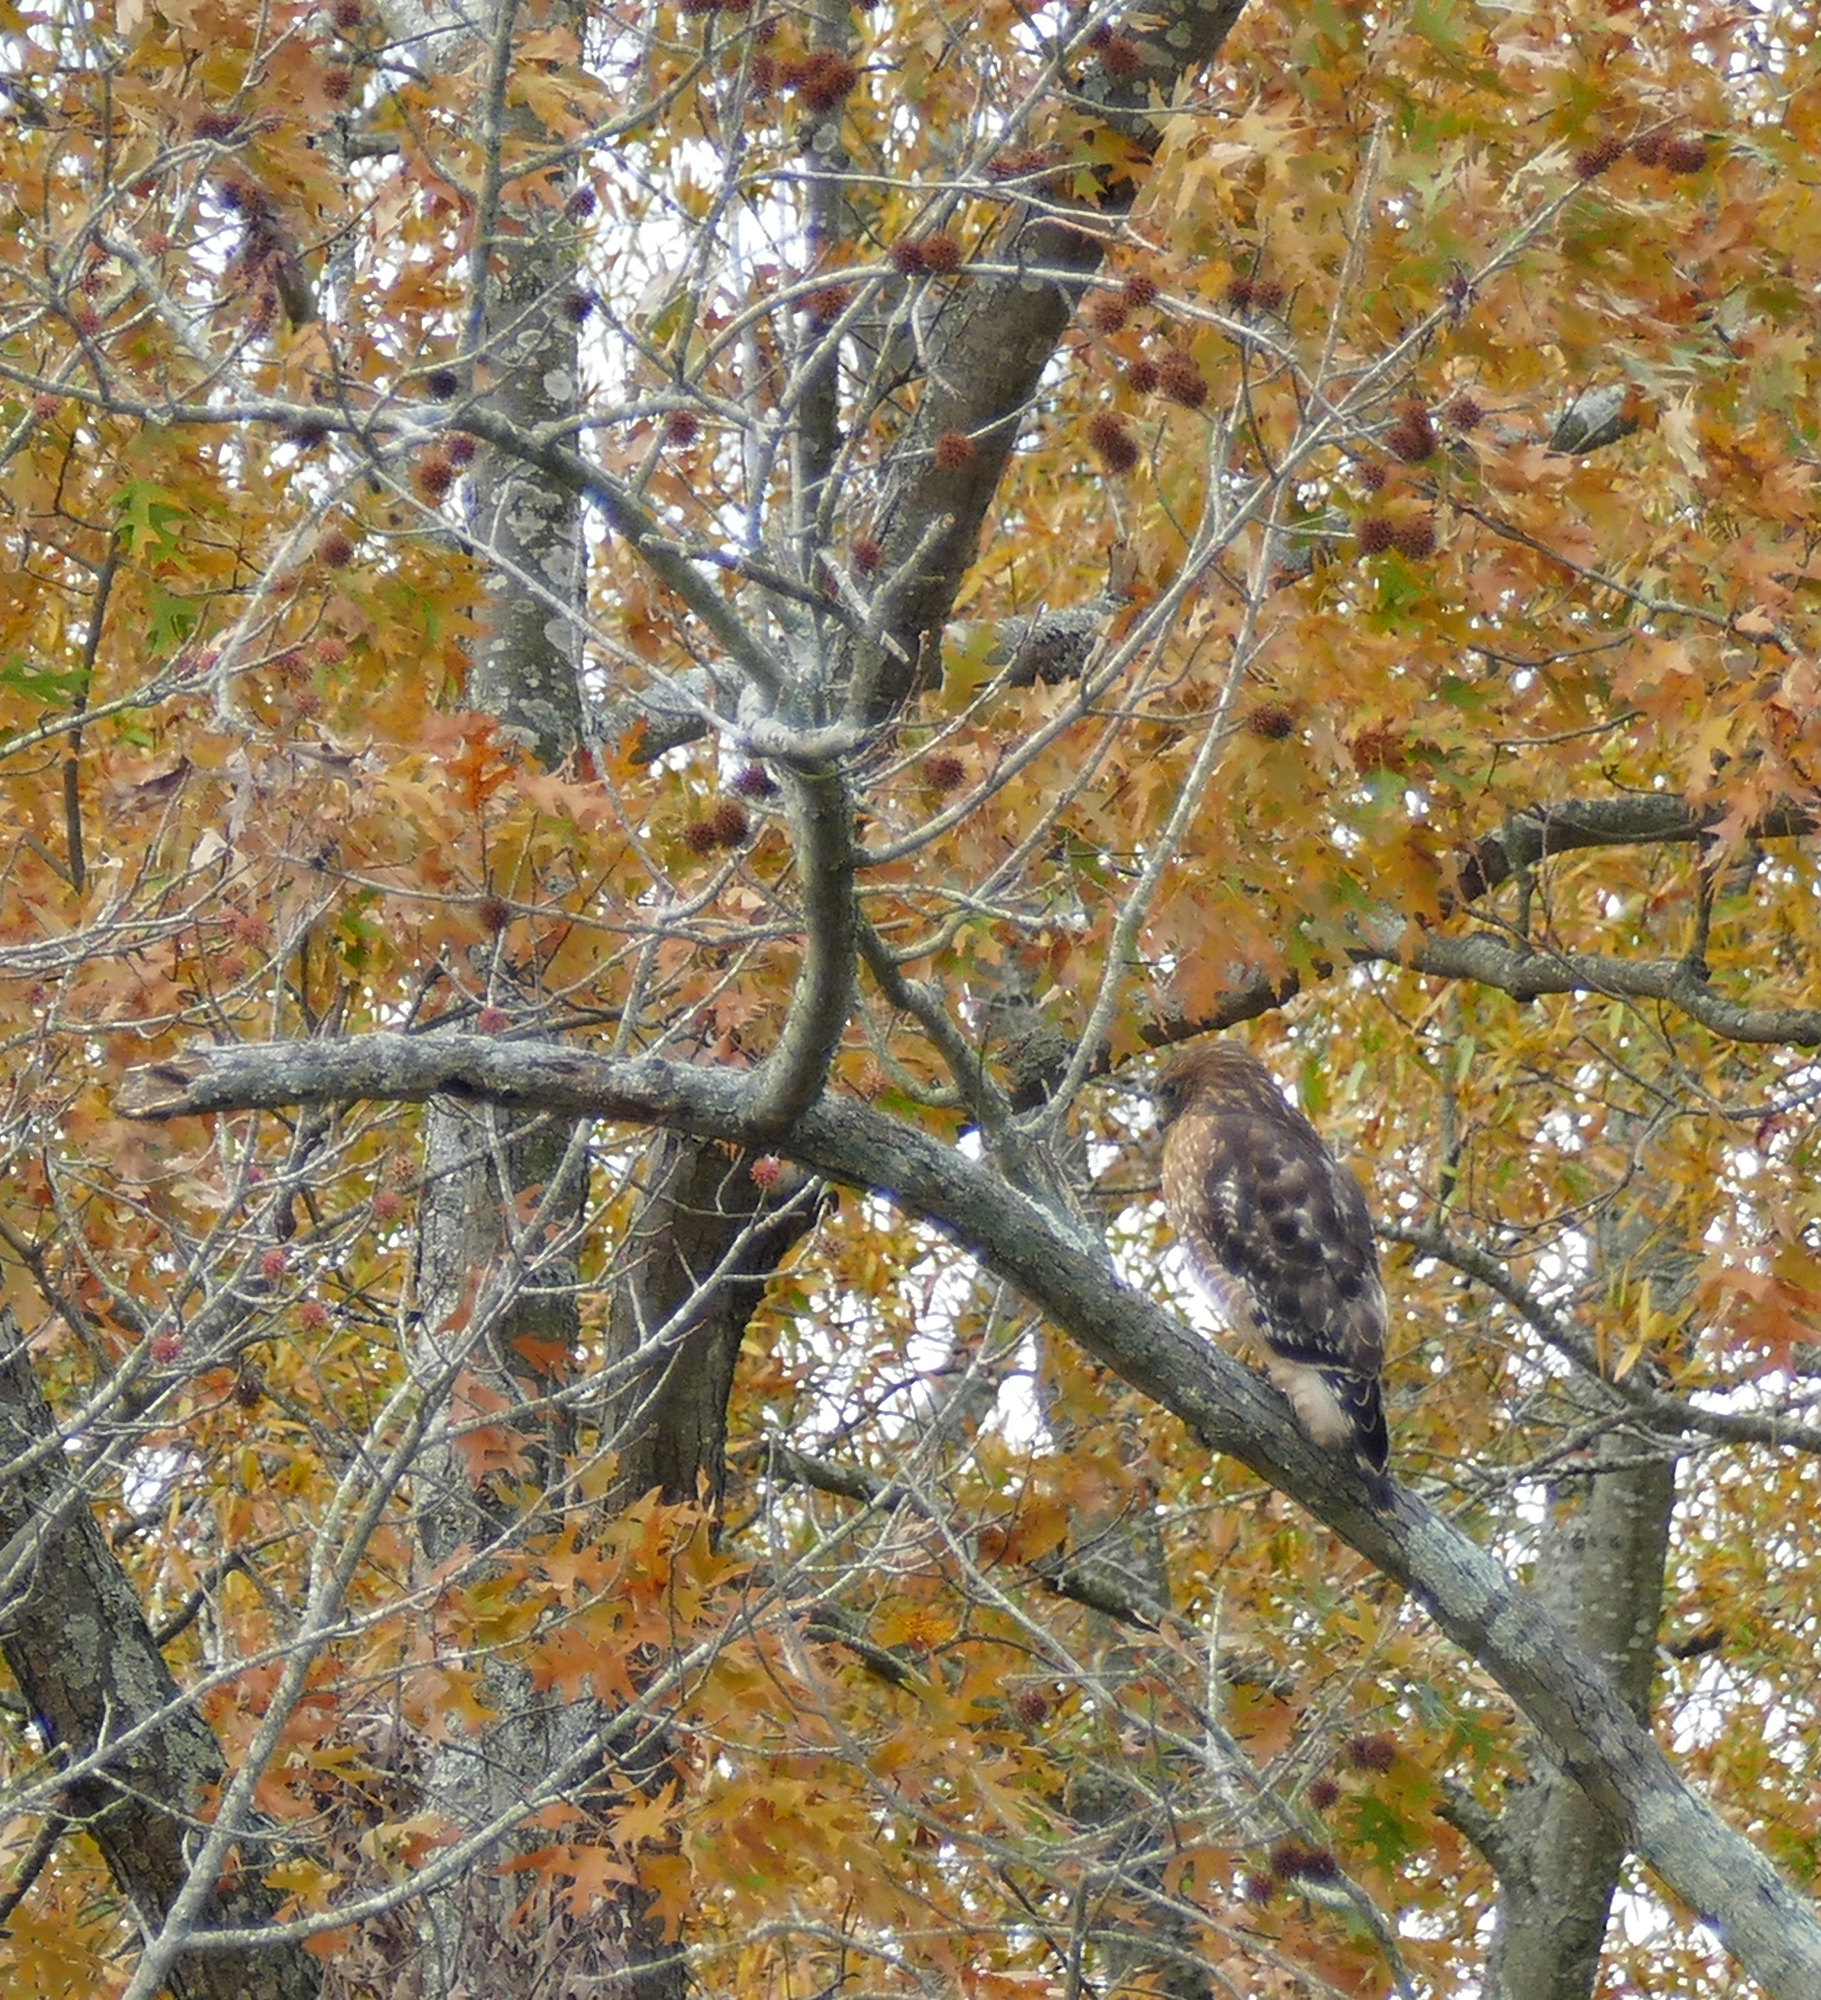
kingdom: Animalia
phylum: Chordata
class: Aves
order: Accipitriformes
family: Accipitridae
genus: Buteo
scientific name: Buteo lineatus
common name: Red-shouldered hawk
